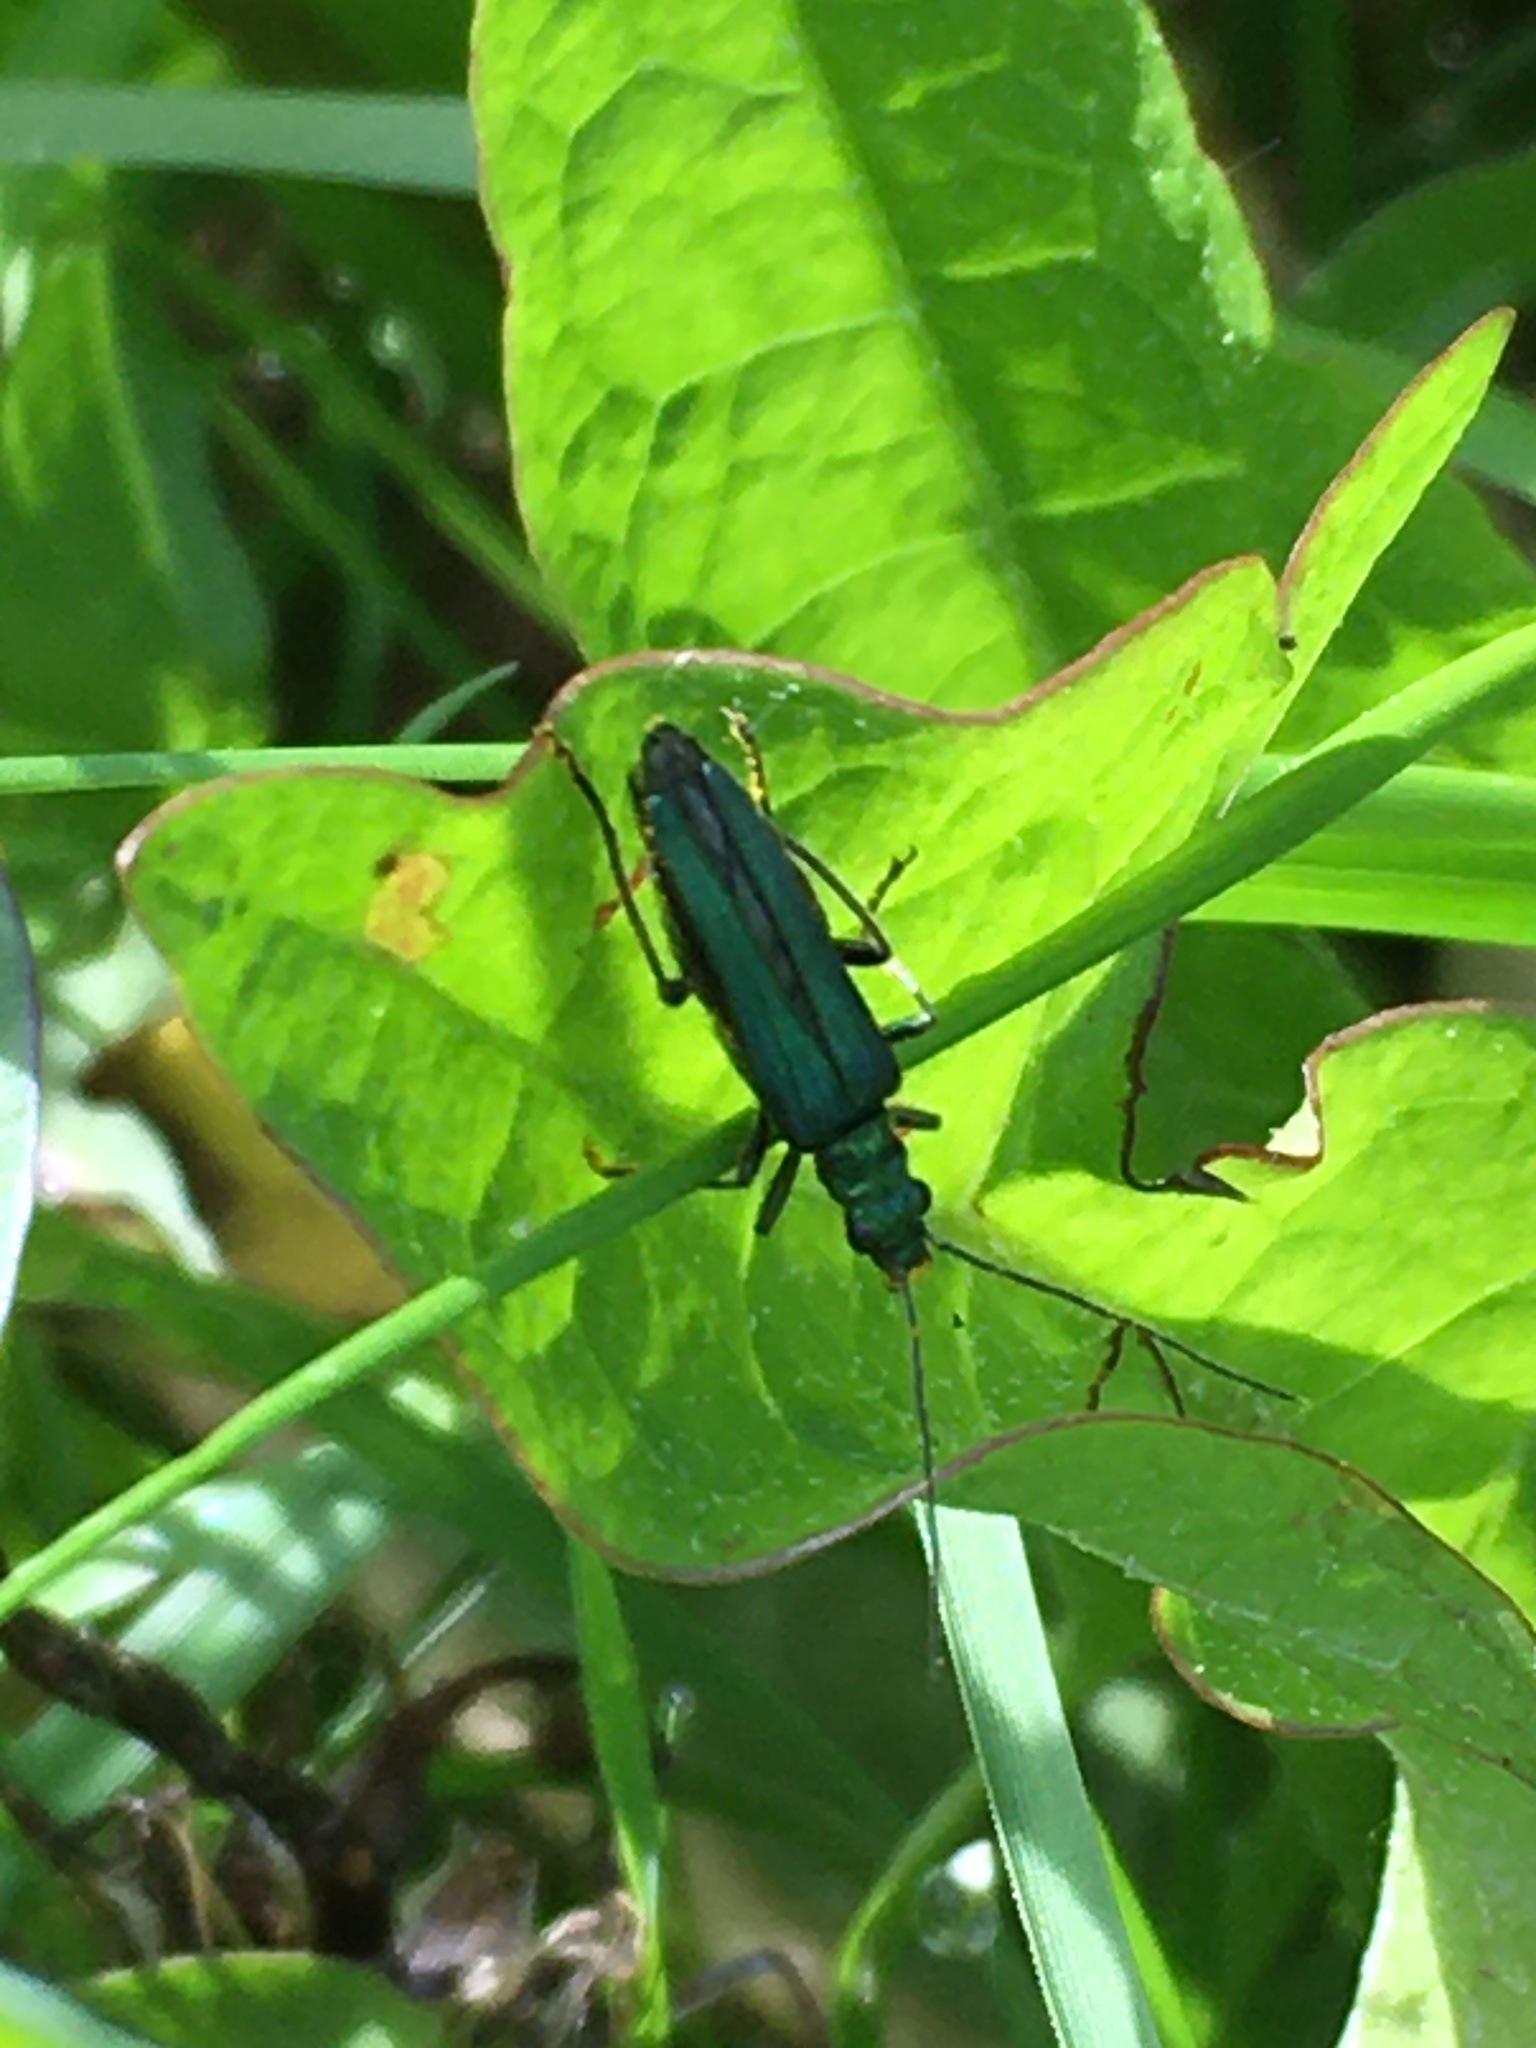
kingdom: Animalia
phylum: Arthropoda
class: Insecta
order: Coleoptera
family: Oedemeridae
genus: Oedemera
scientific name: Oedemera nobilis
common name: Swollen-thighed beetle
